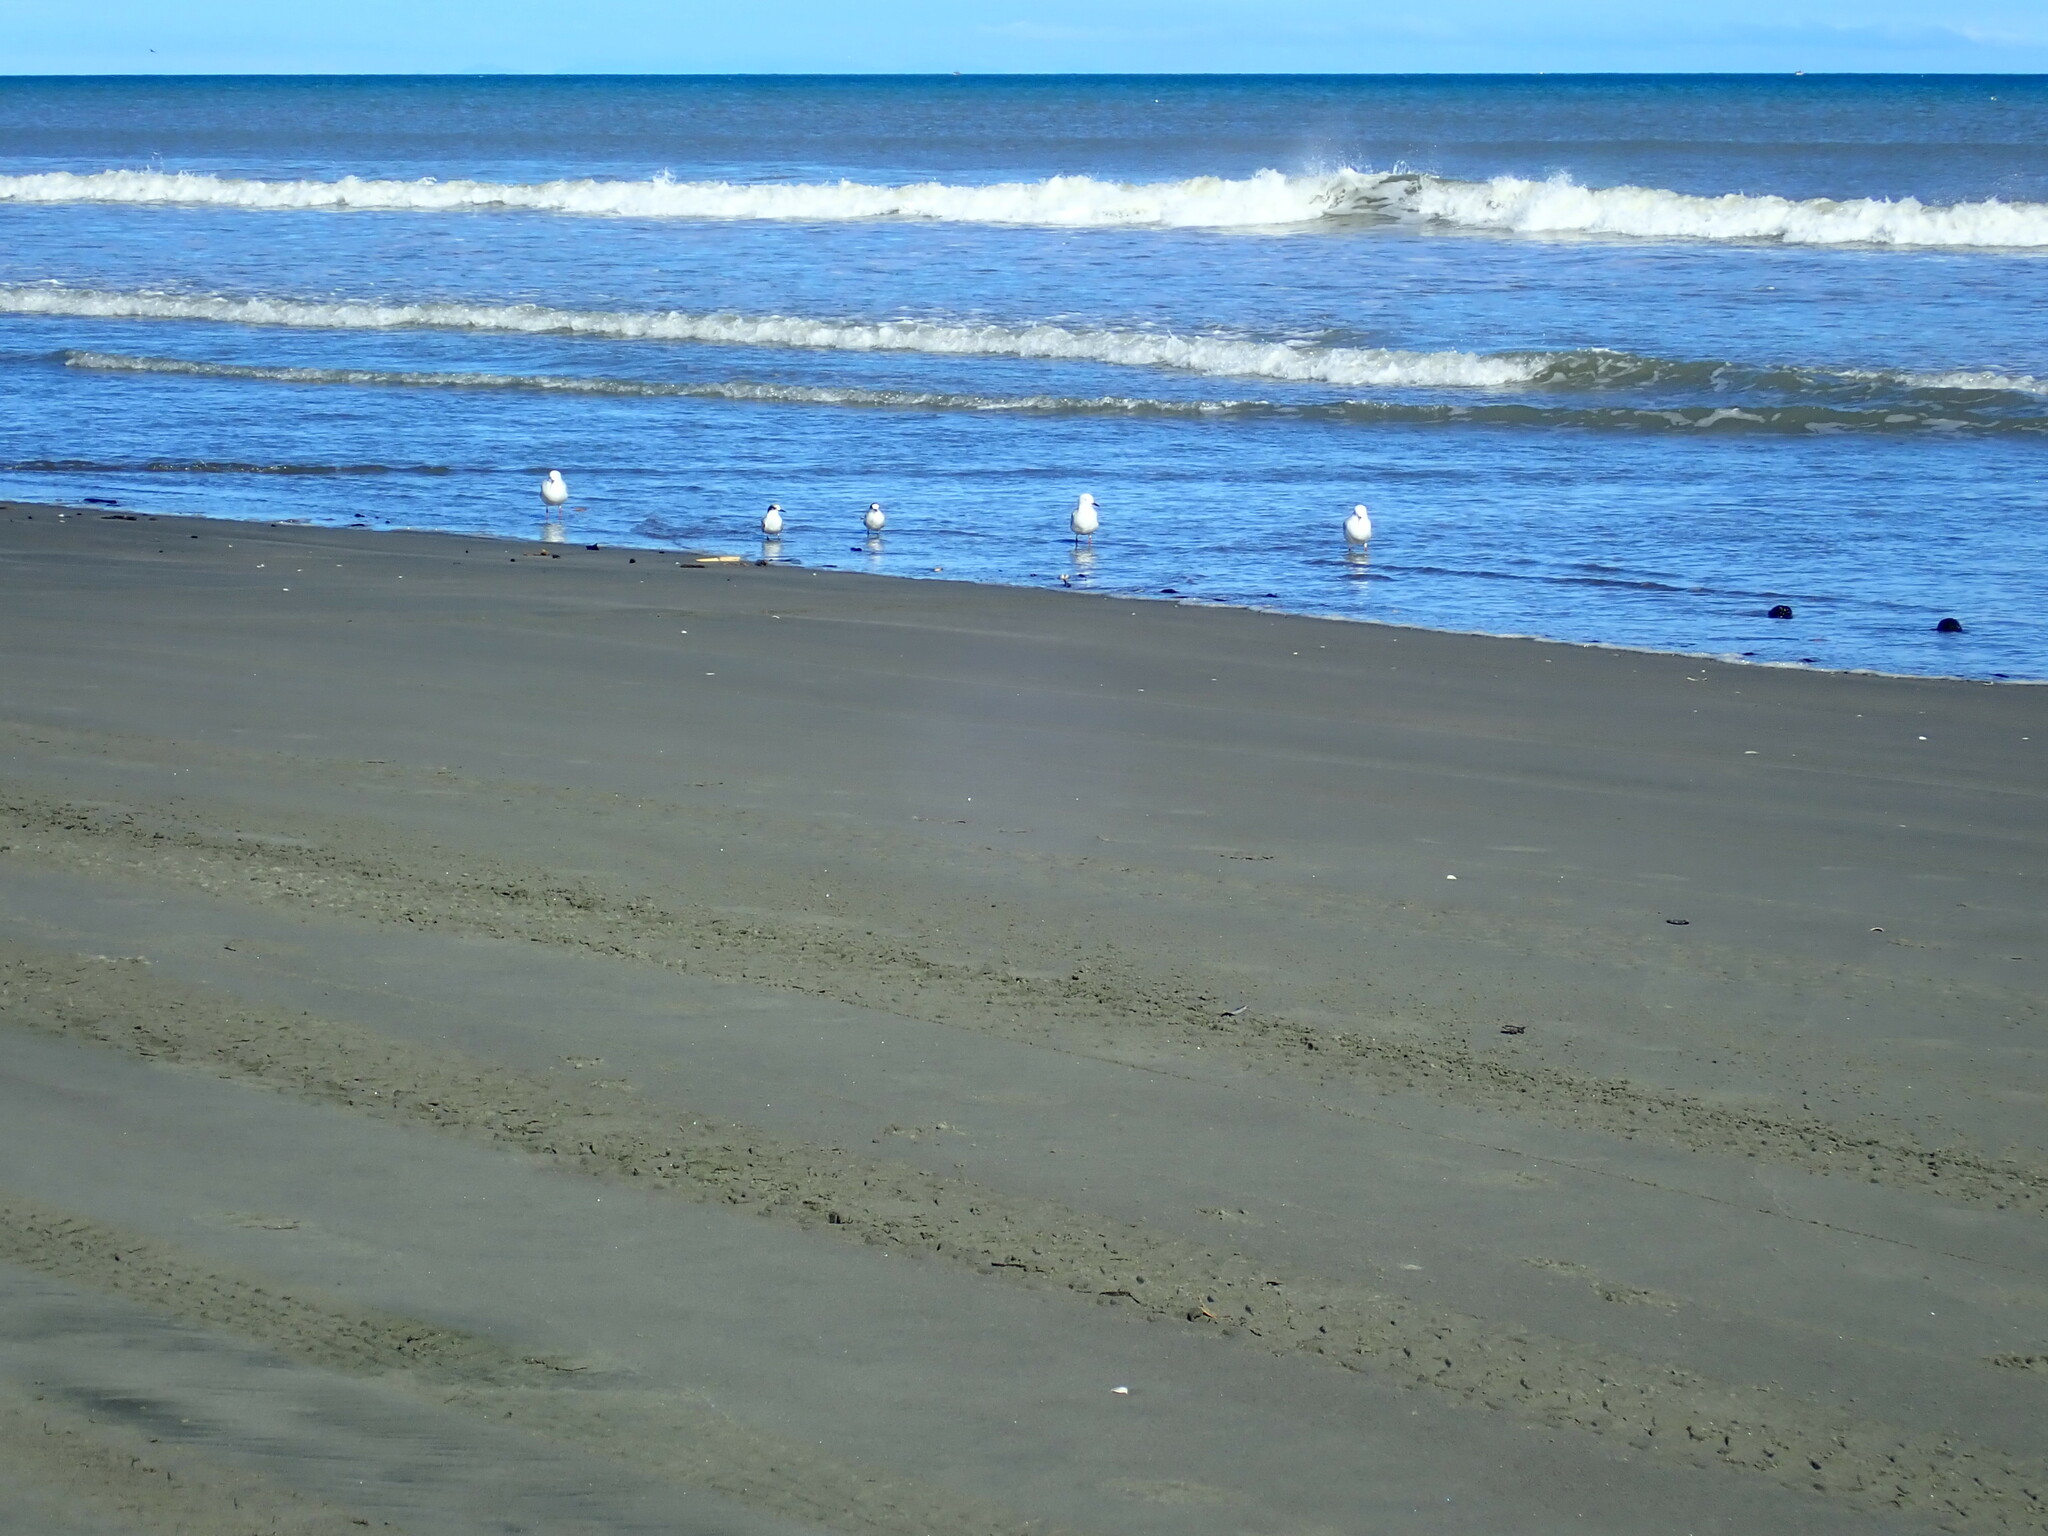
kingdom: Animalia
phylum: Chordata
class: Aves
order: Charadriiformes
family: Laridae
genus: Sterna
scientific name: Sterna striata
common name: White-fronted tern
